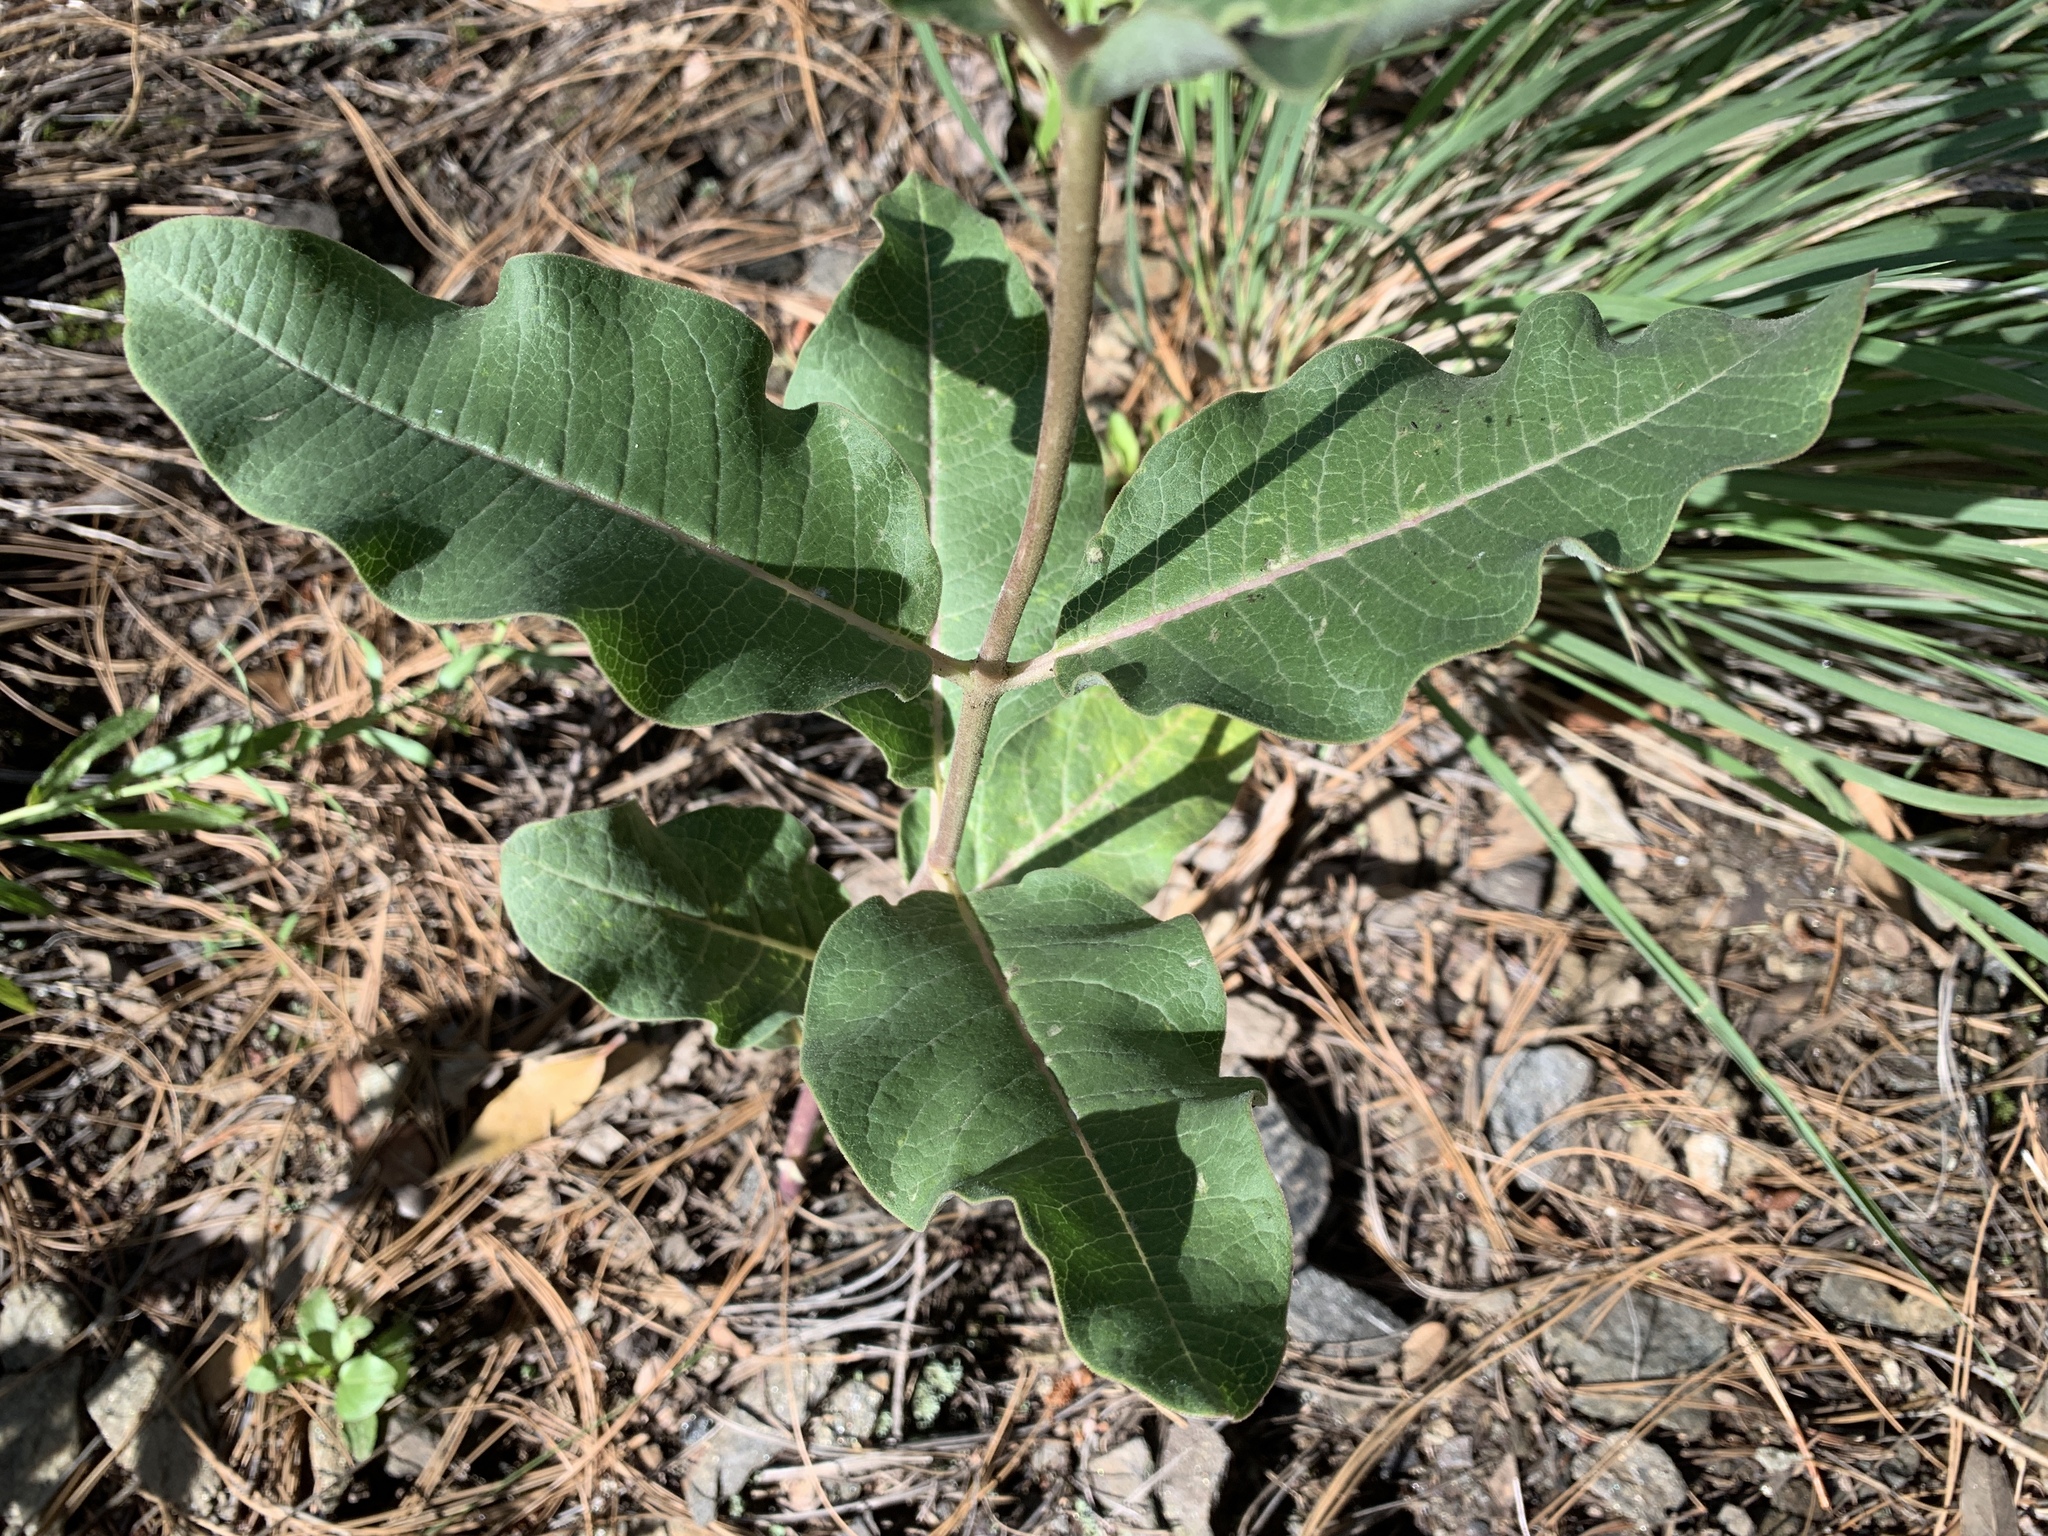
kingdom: Plantae
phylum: Tracheophyta
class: Magnoliopsida
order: Gentianales
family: Apocynaceae
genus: Asclepias
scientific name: Asclepias hypoleuca
